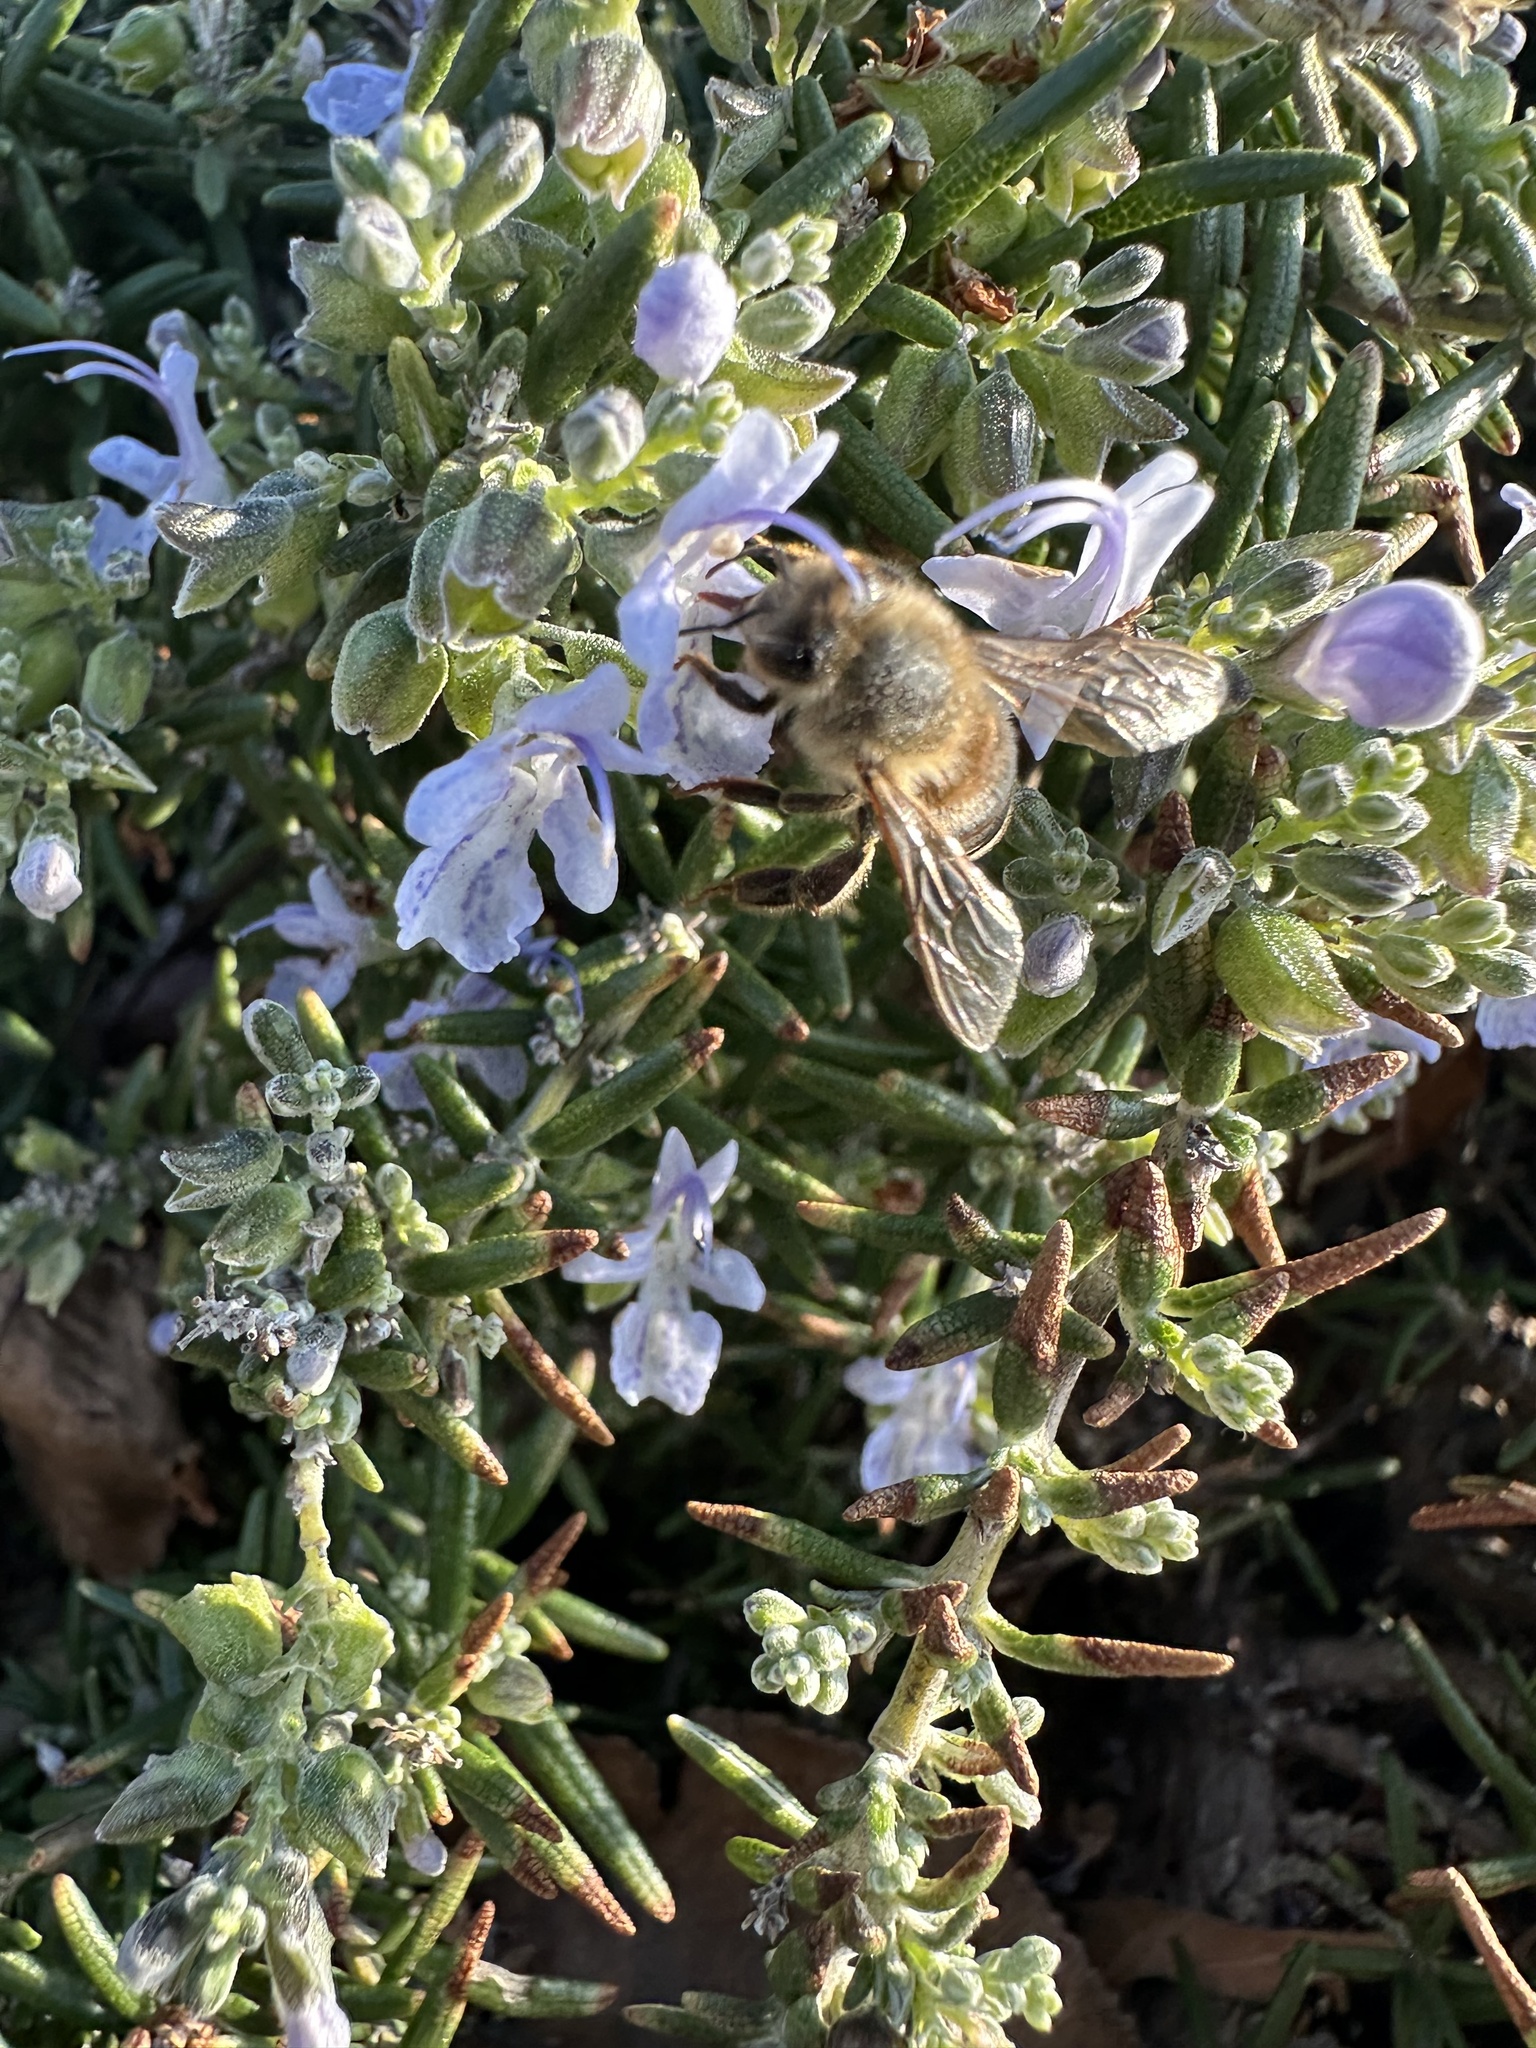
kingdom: Animalia
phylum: Arthropoda
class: Insecta
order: Hymenoptera
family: Apidae
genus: Apis
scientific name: Apis mellifera
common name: Honey bee
